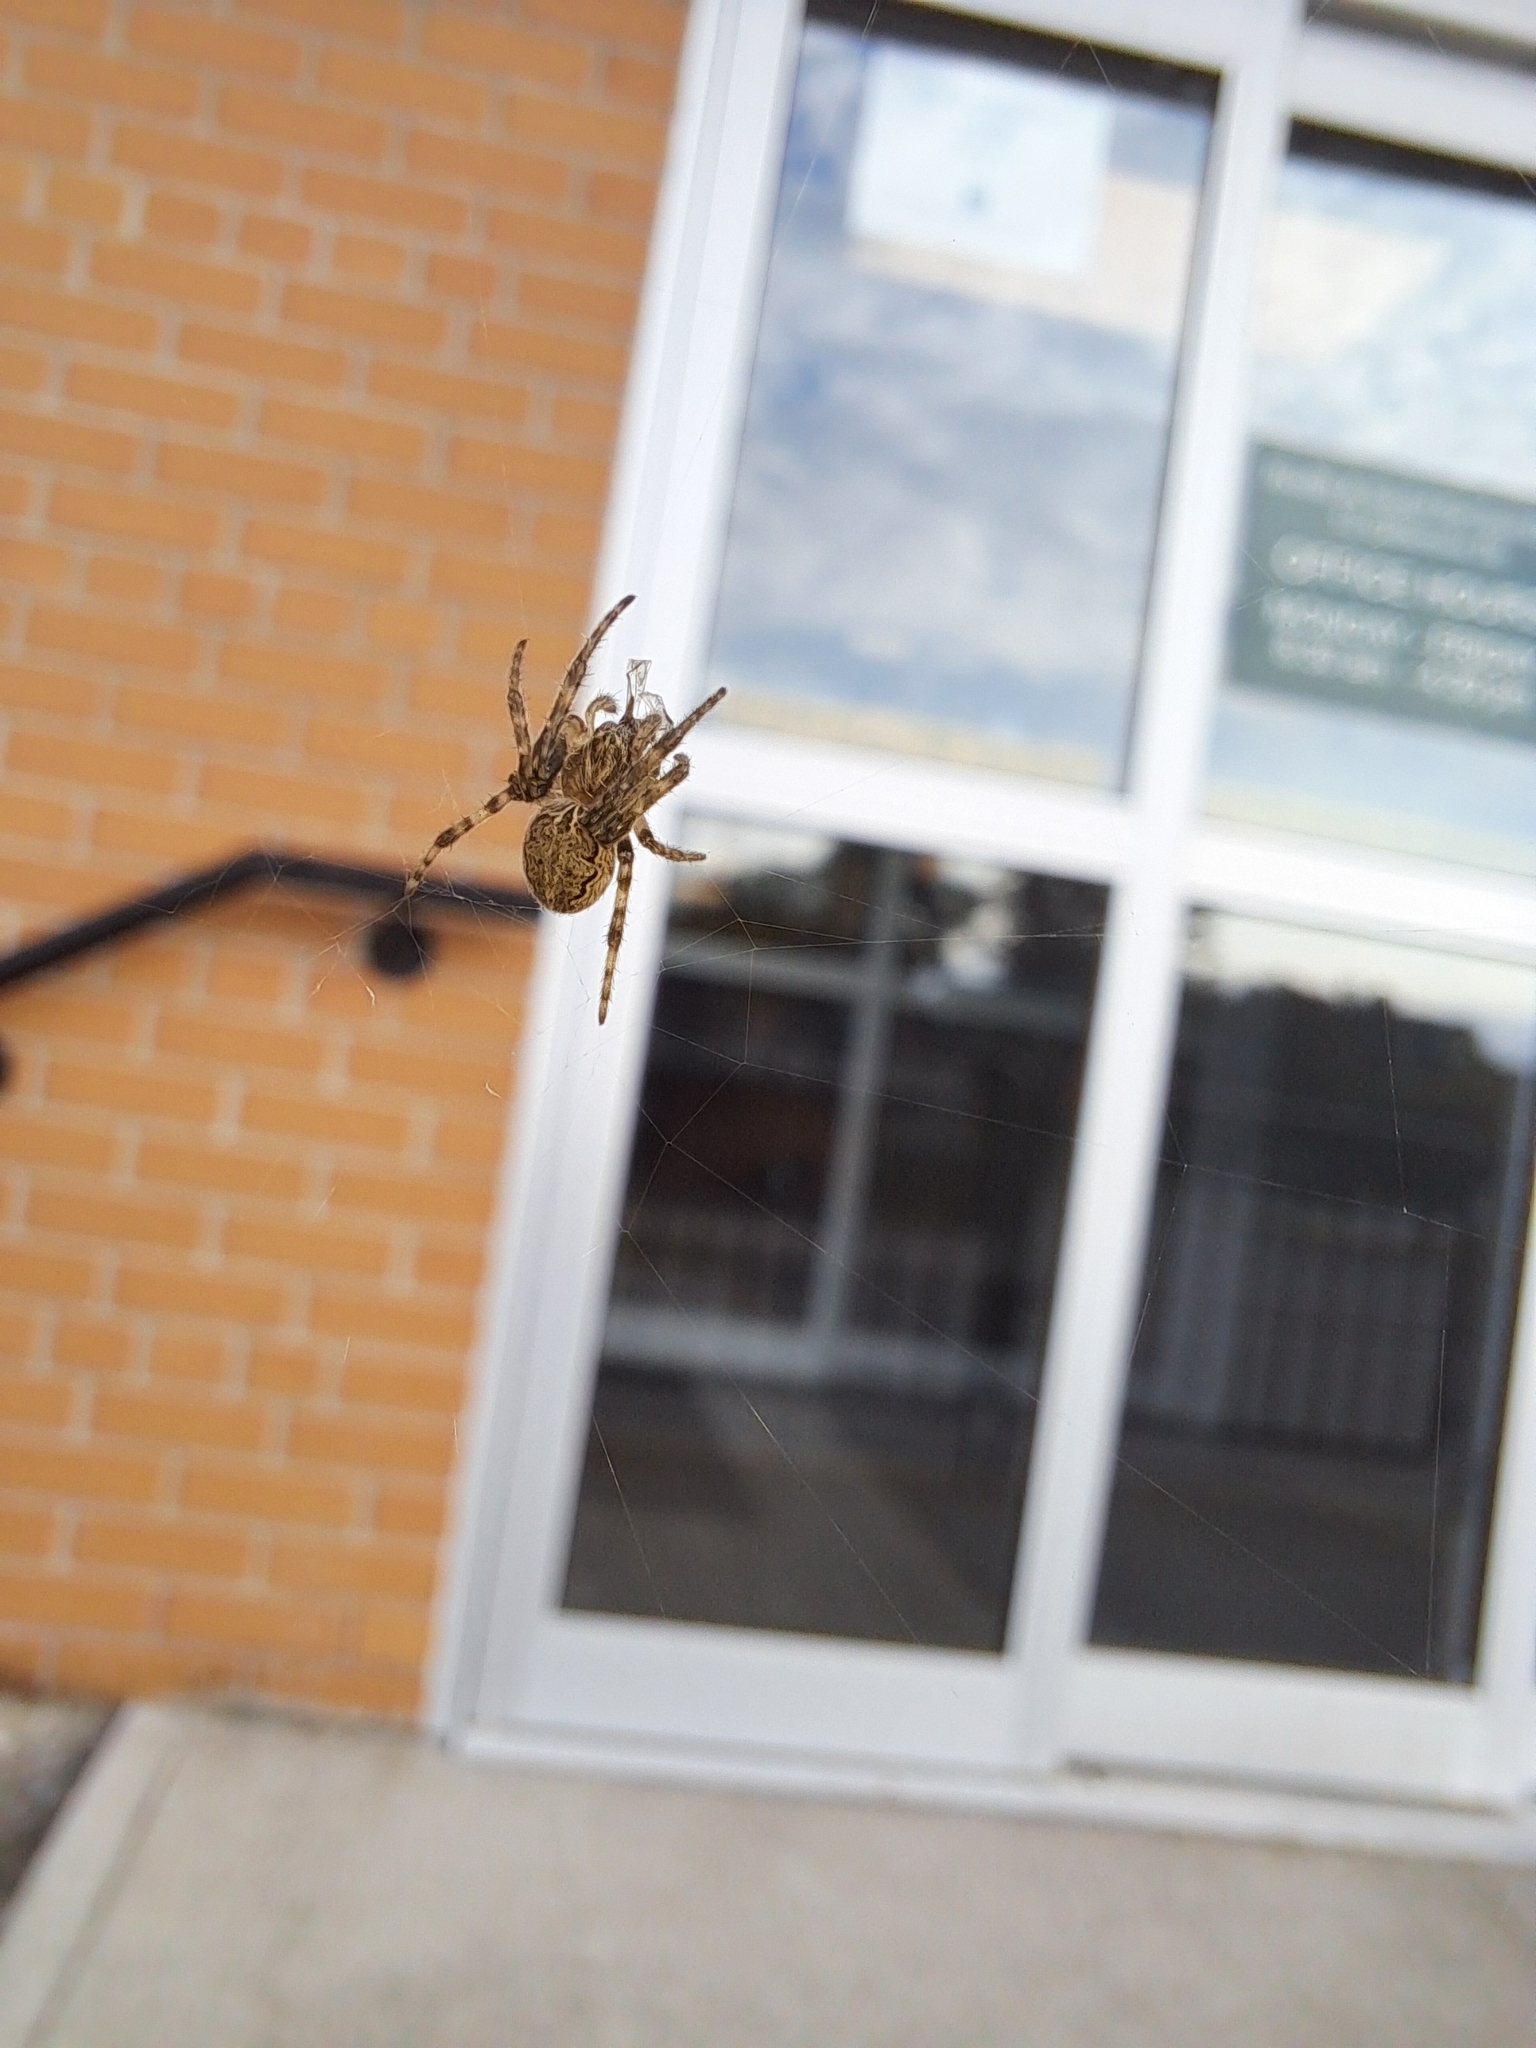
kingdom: Animalia
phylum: Arthropoda
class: Arachnida
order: Araneae
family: Araneidae
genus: Larinioides
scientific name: Larinioides sclopetarius
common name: Bridge orbweaver
